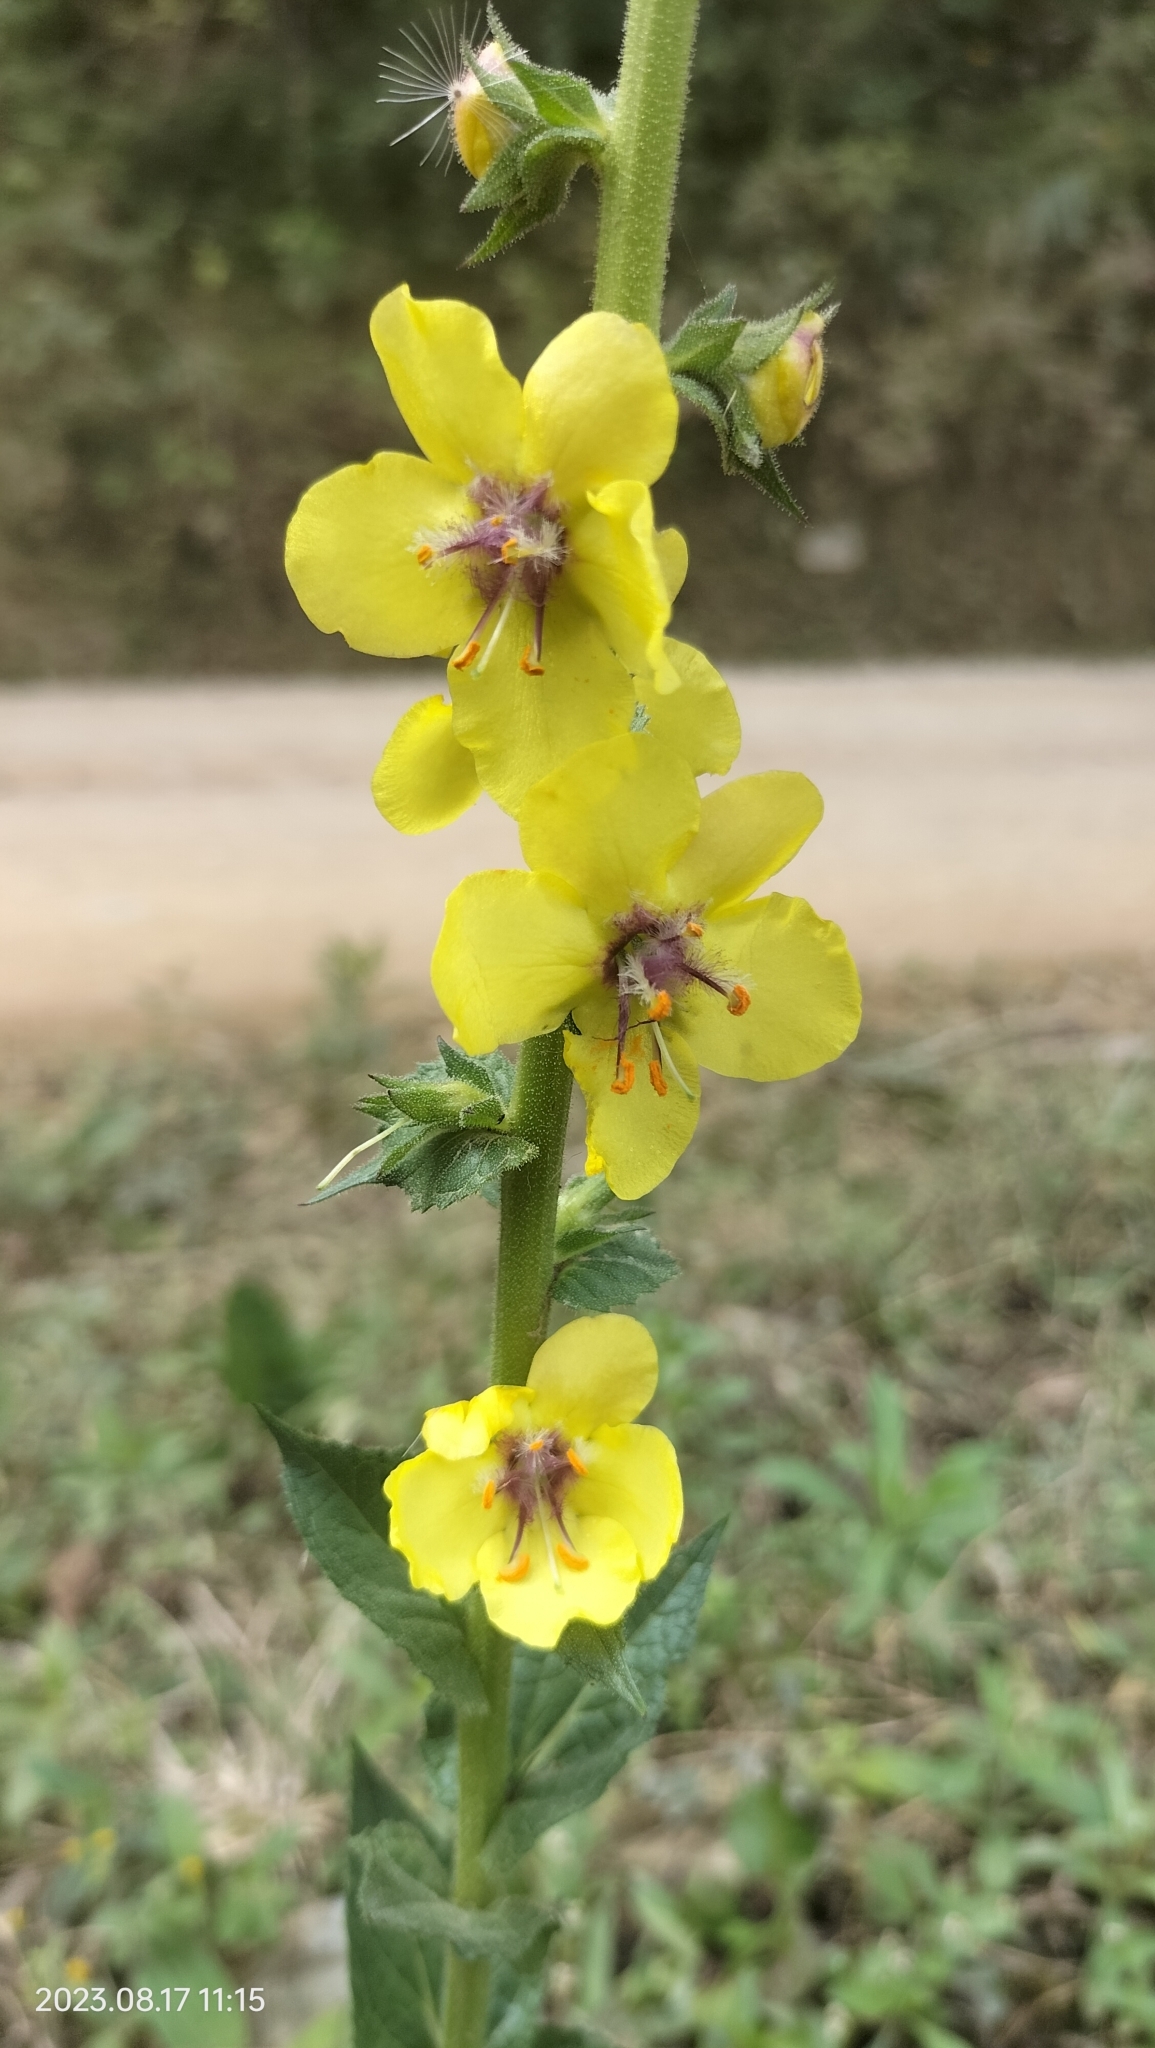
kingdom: Plantae
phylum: Tracheophyta
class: Magnoliopsida
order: Lamiales
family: Scrophulariaceae
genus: Verbascum
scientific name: Verbascum virgatum
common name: Twiggy mullein
